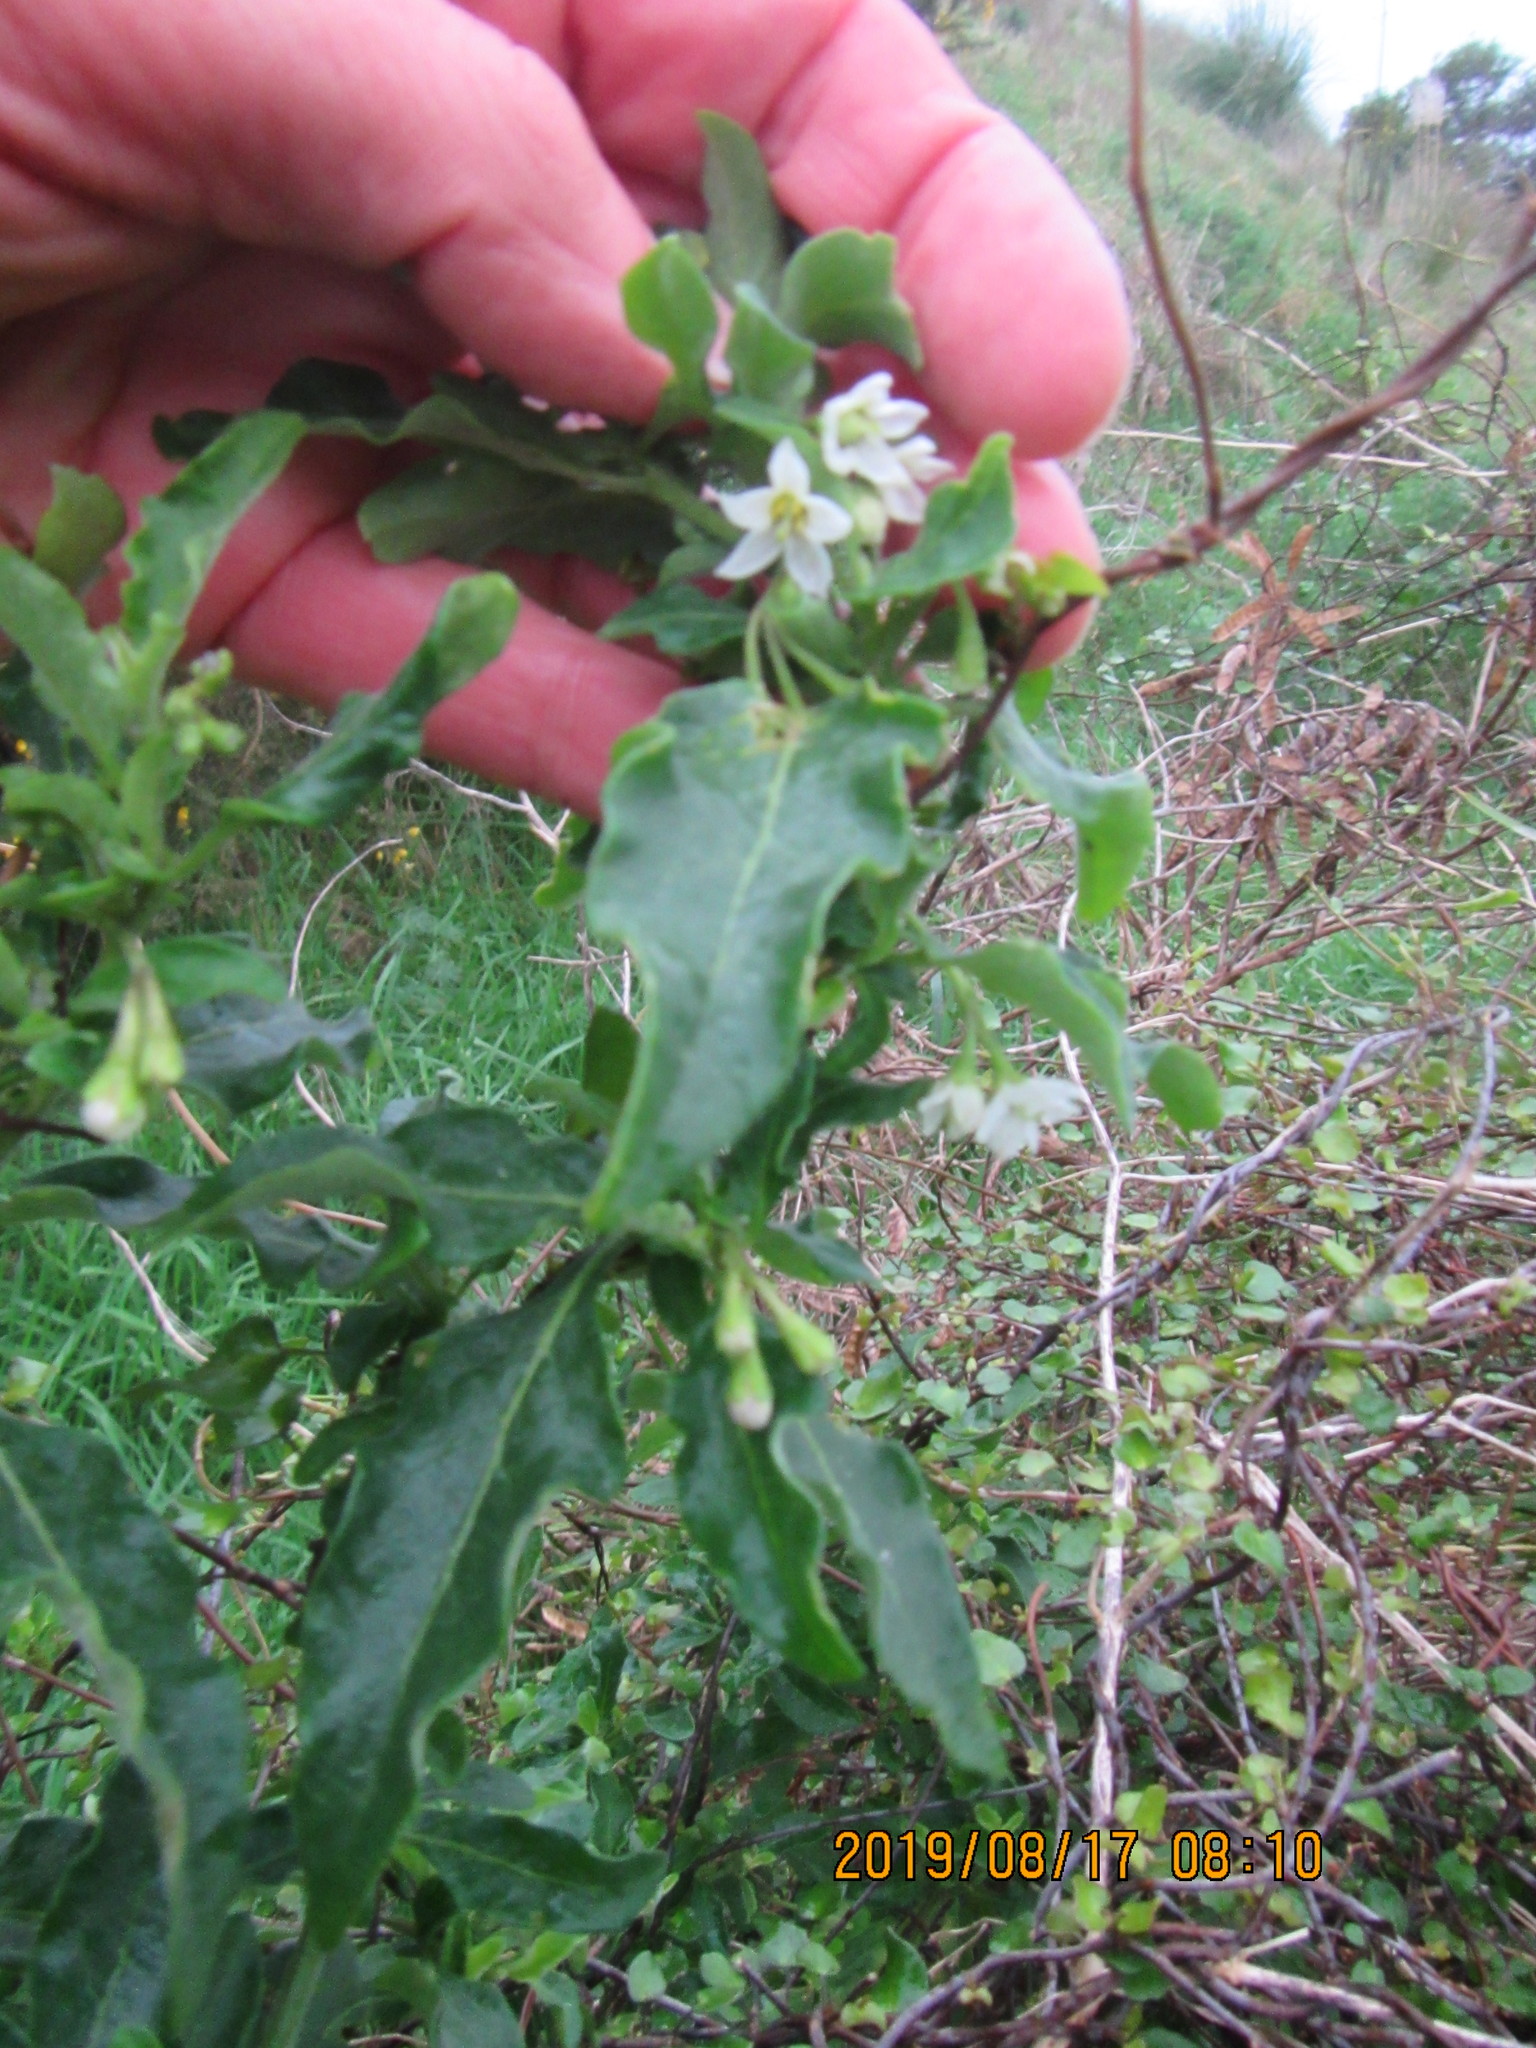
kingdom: Plantae
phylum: Tracheophyta
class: Magnoliopsida
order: Solanales
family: Solanaceae
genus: Solanum
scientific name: Solanum chenopodioides
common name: Tall nightshade
